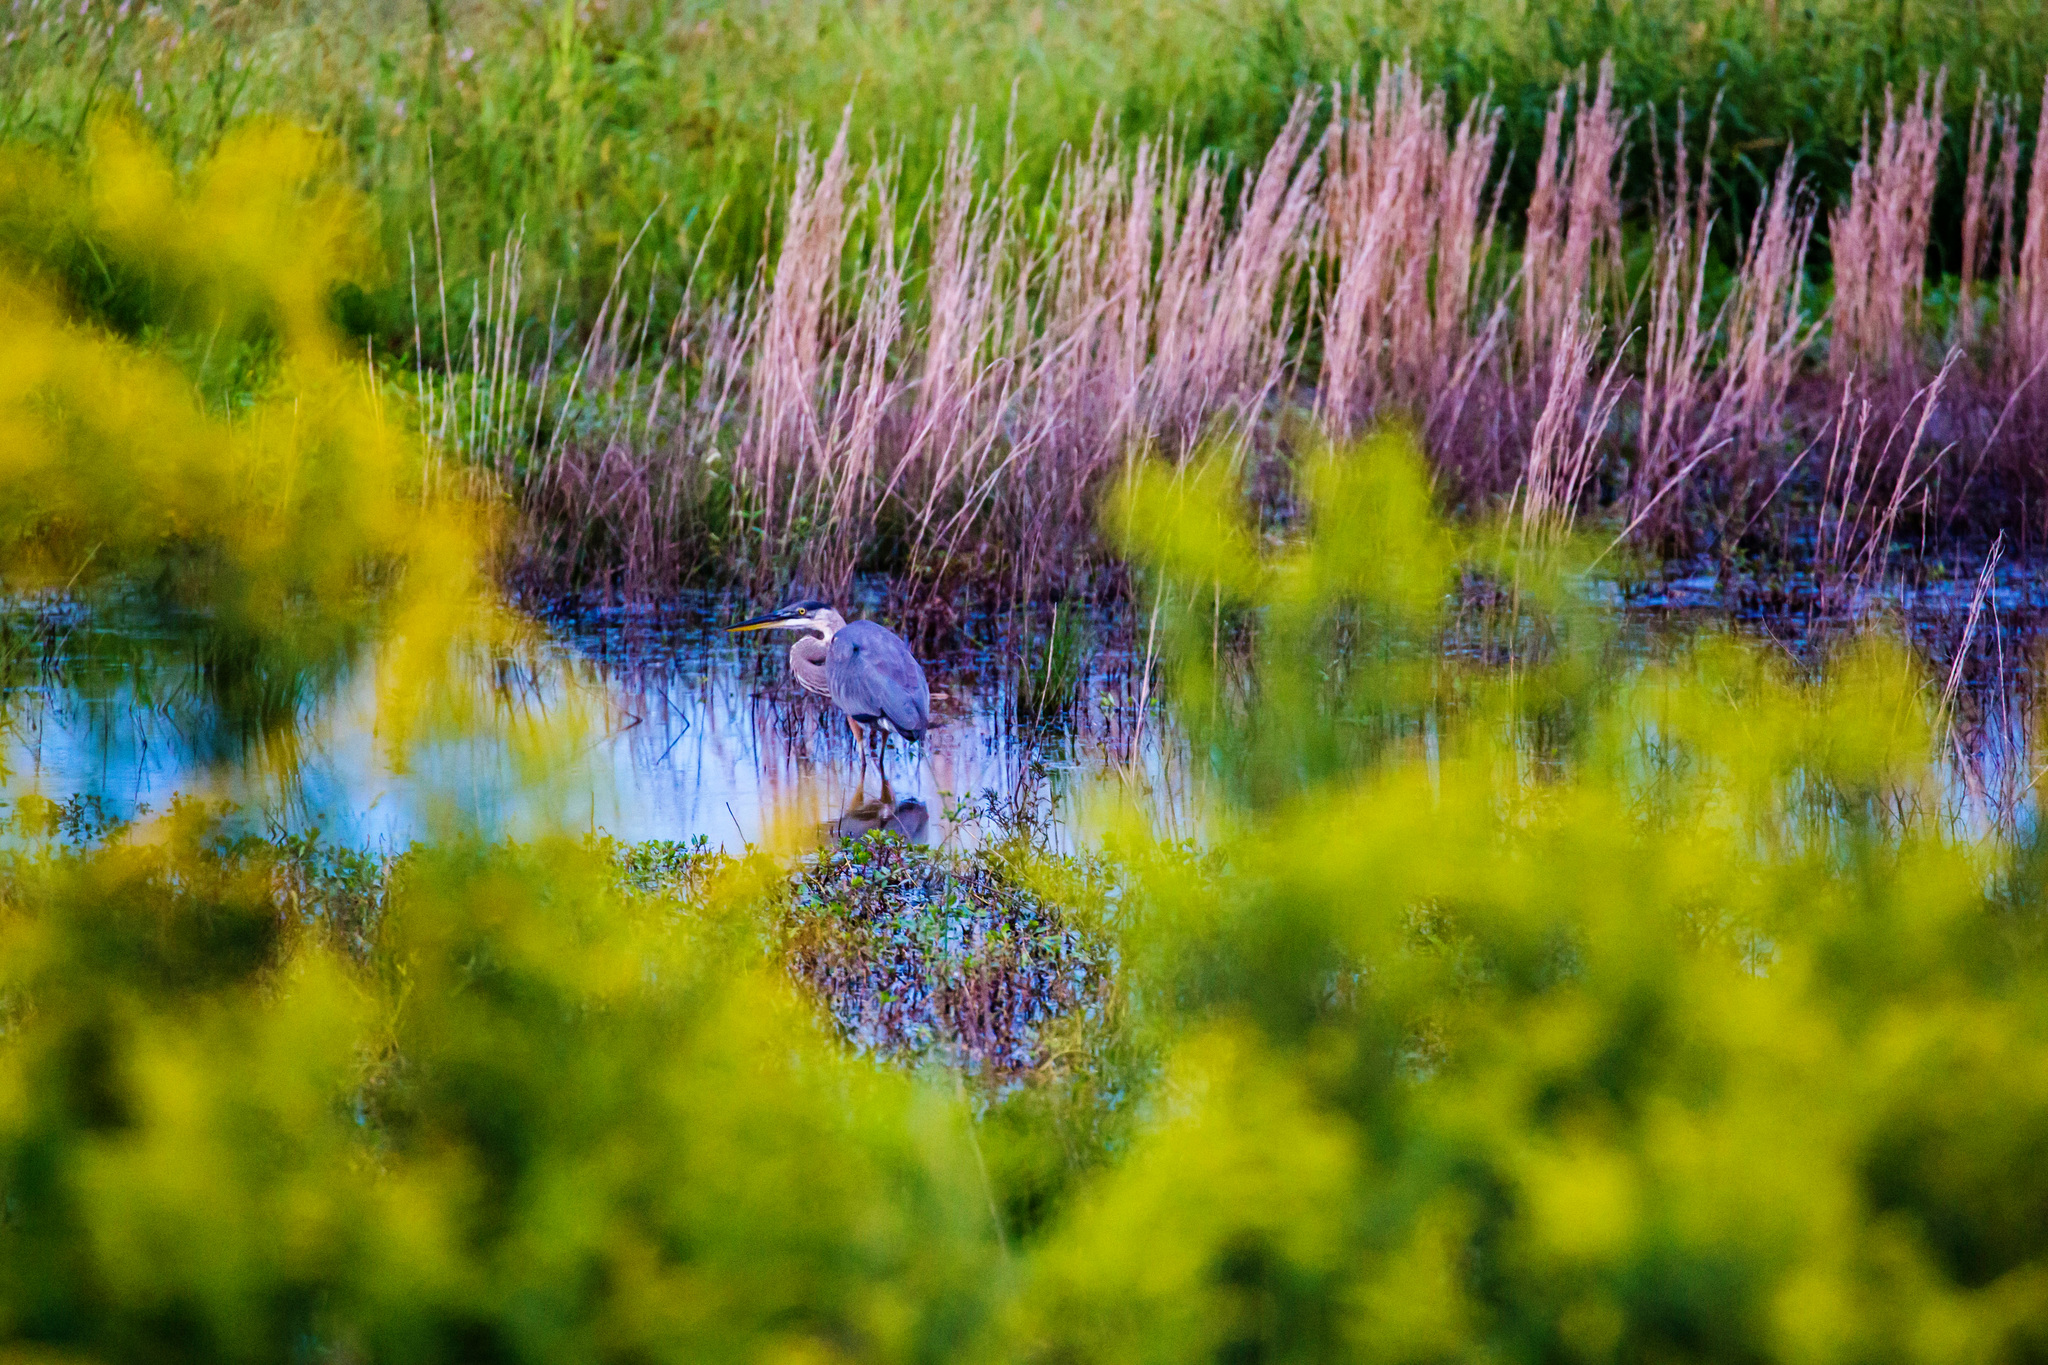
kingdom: Animalia
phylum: Chordata
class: Aves
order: Pelecaniformes
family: Ardeidae
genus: Ardea
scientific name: Ardea herodias
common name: Great blue heron
